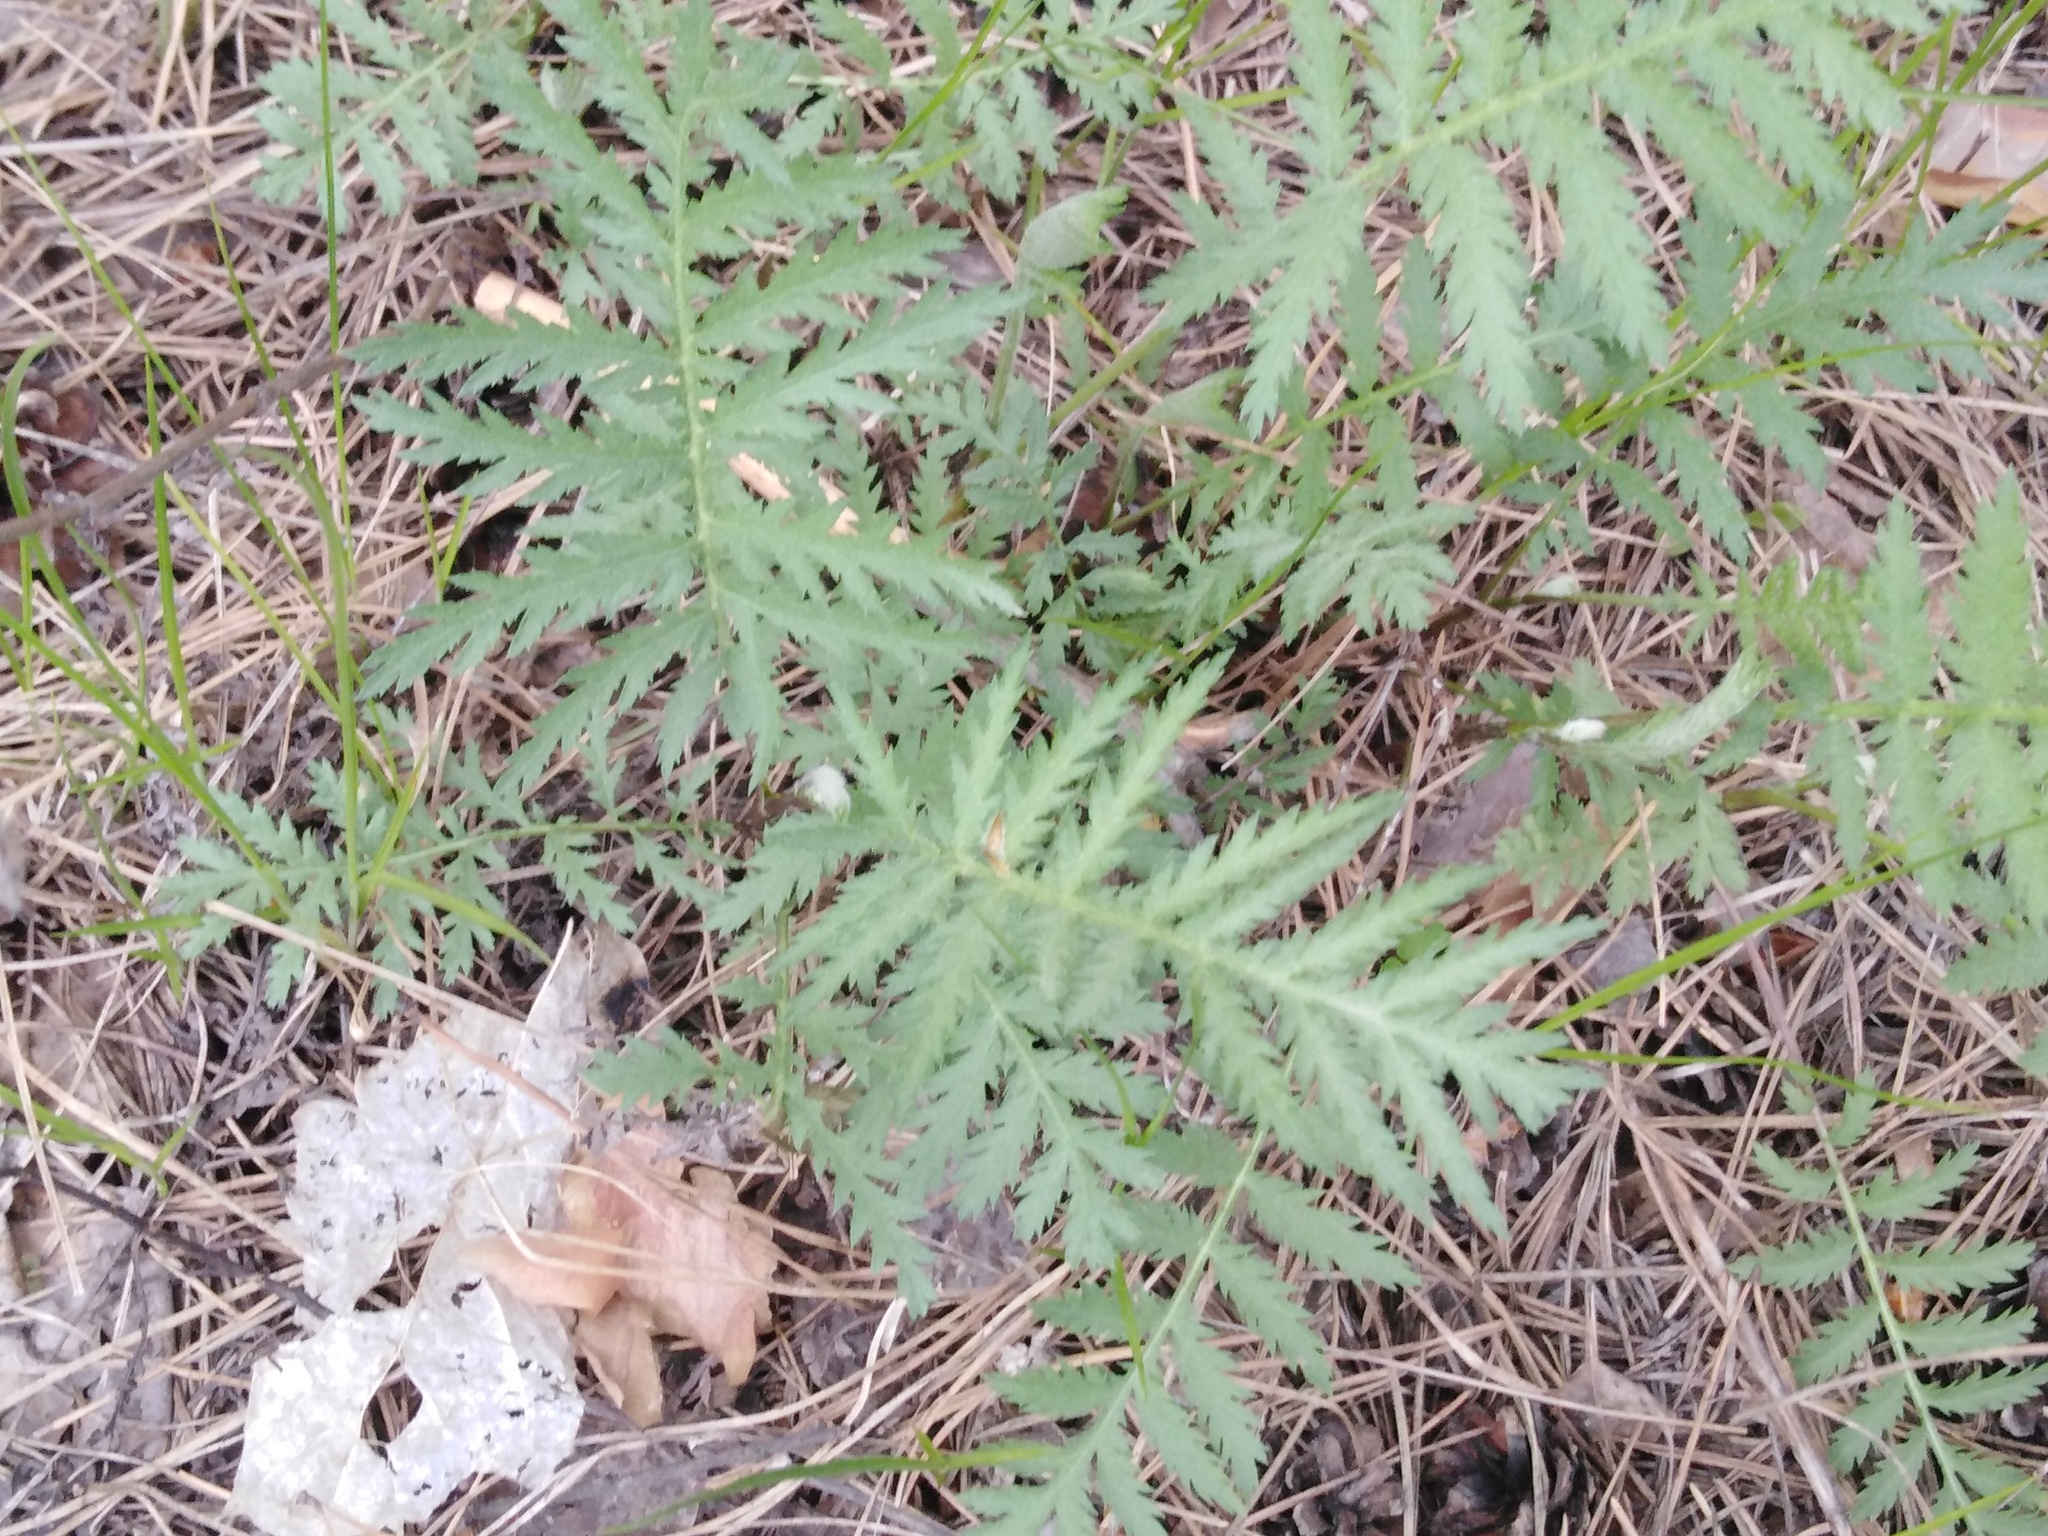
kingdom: Plantae
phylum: Tracheophyta
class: Magnoliopsida
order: Asterales
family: Asteraceae
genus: Tanacetum
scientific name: Tanacetum vulgare
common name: Common tansy
